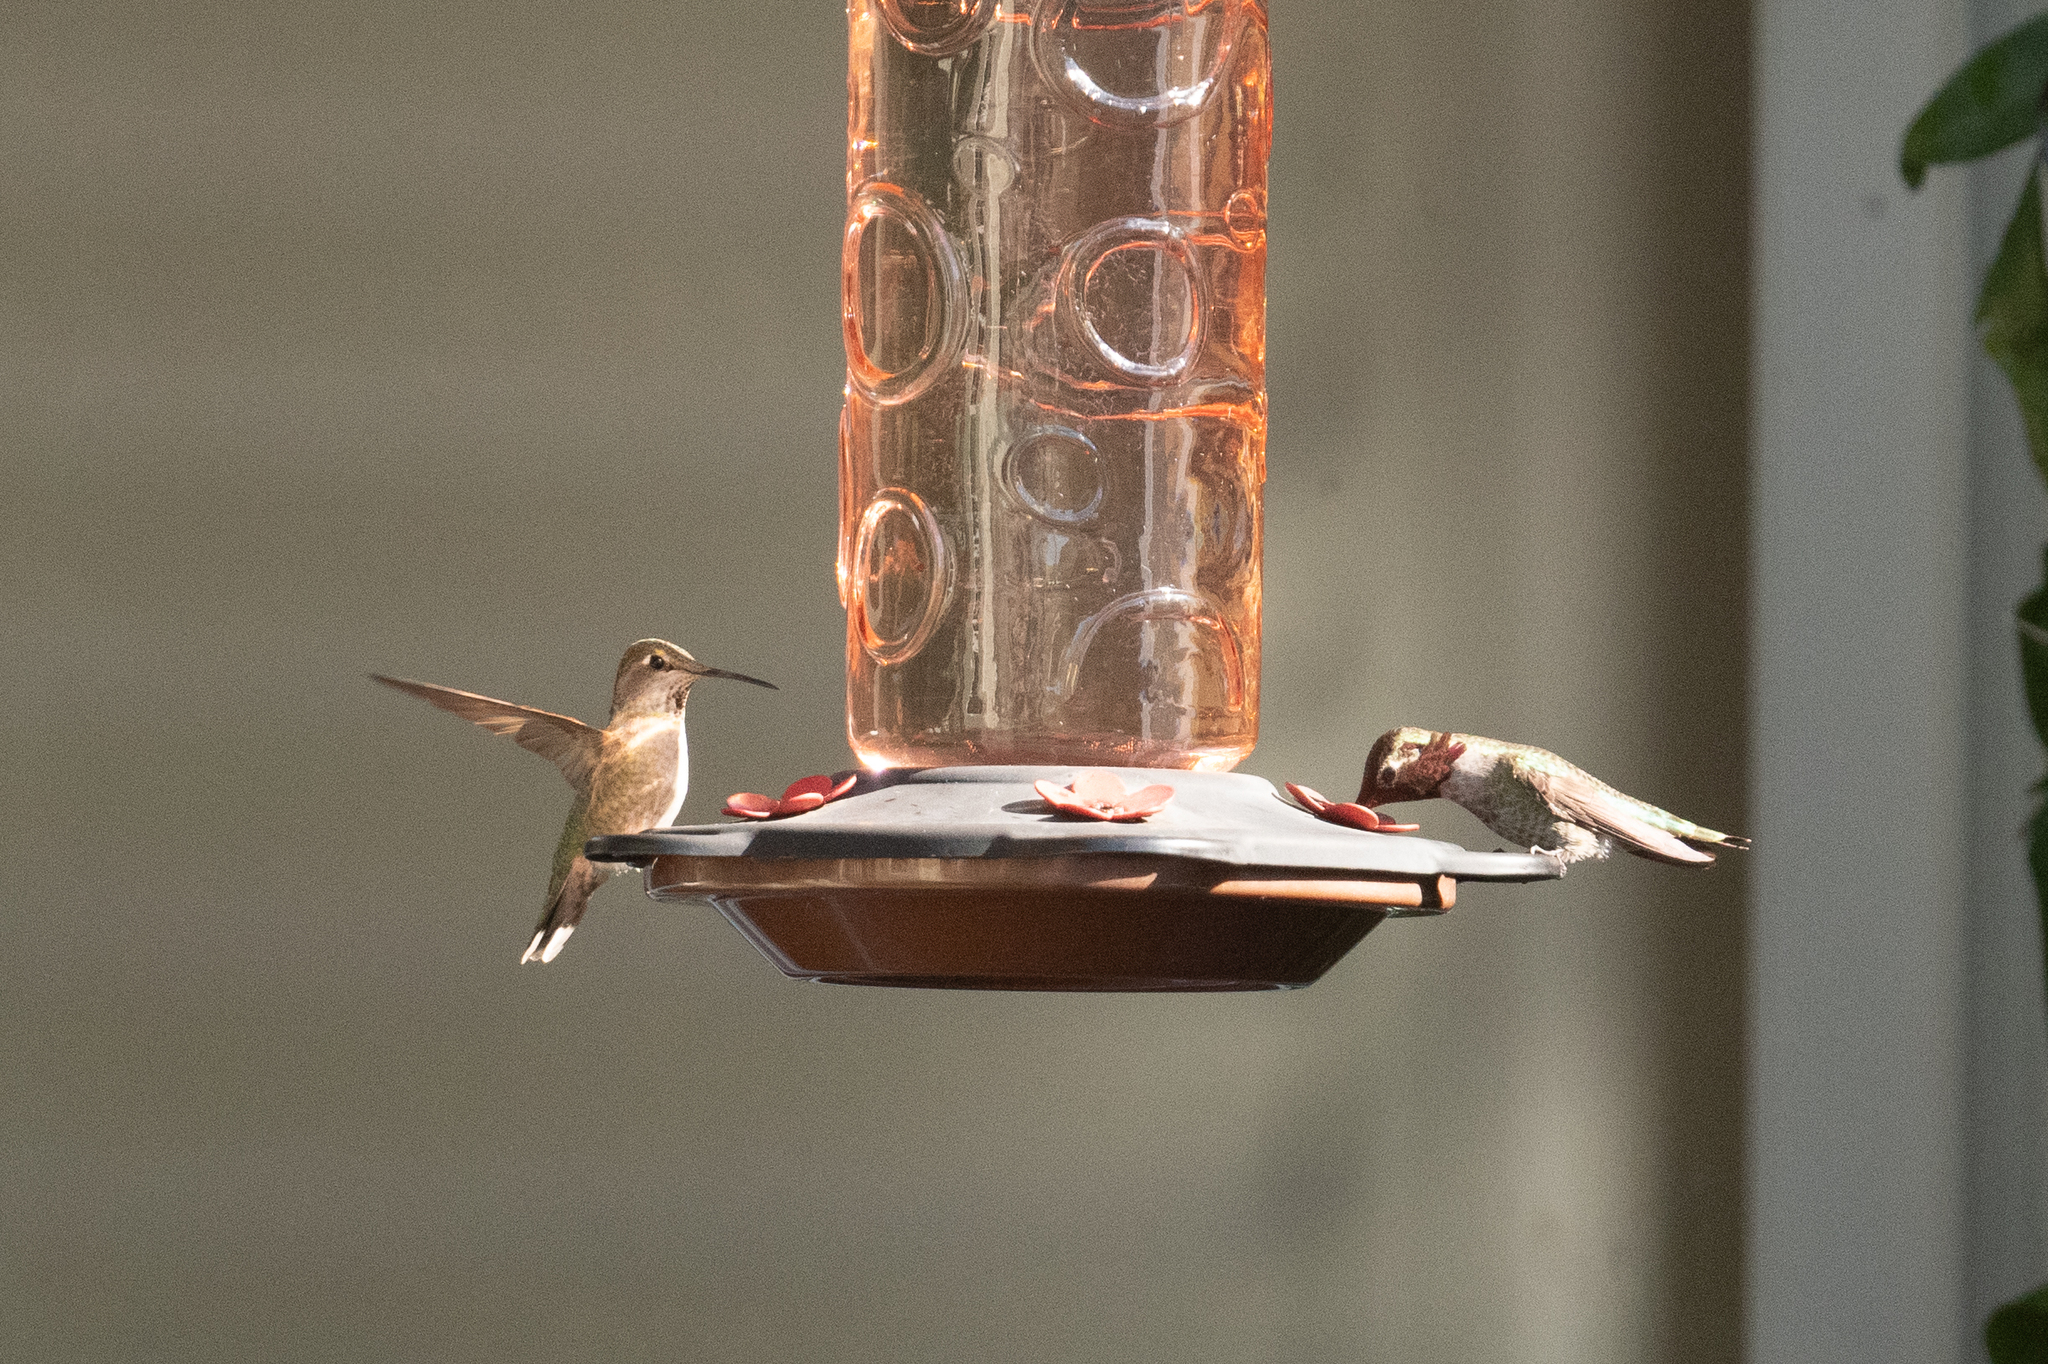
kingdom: Animalia
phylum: Chordata
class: Aves
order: Apodiformes
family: Trochilidae
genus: Calypte
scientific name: Calypte anna
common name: Anna's hummingbird
